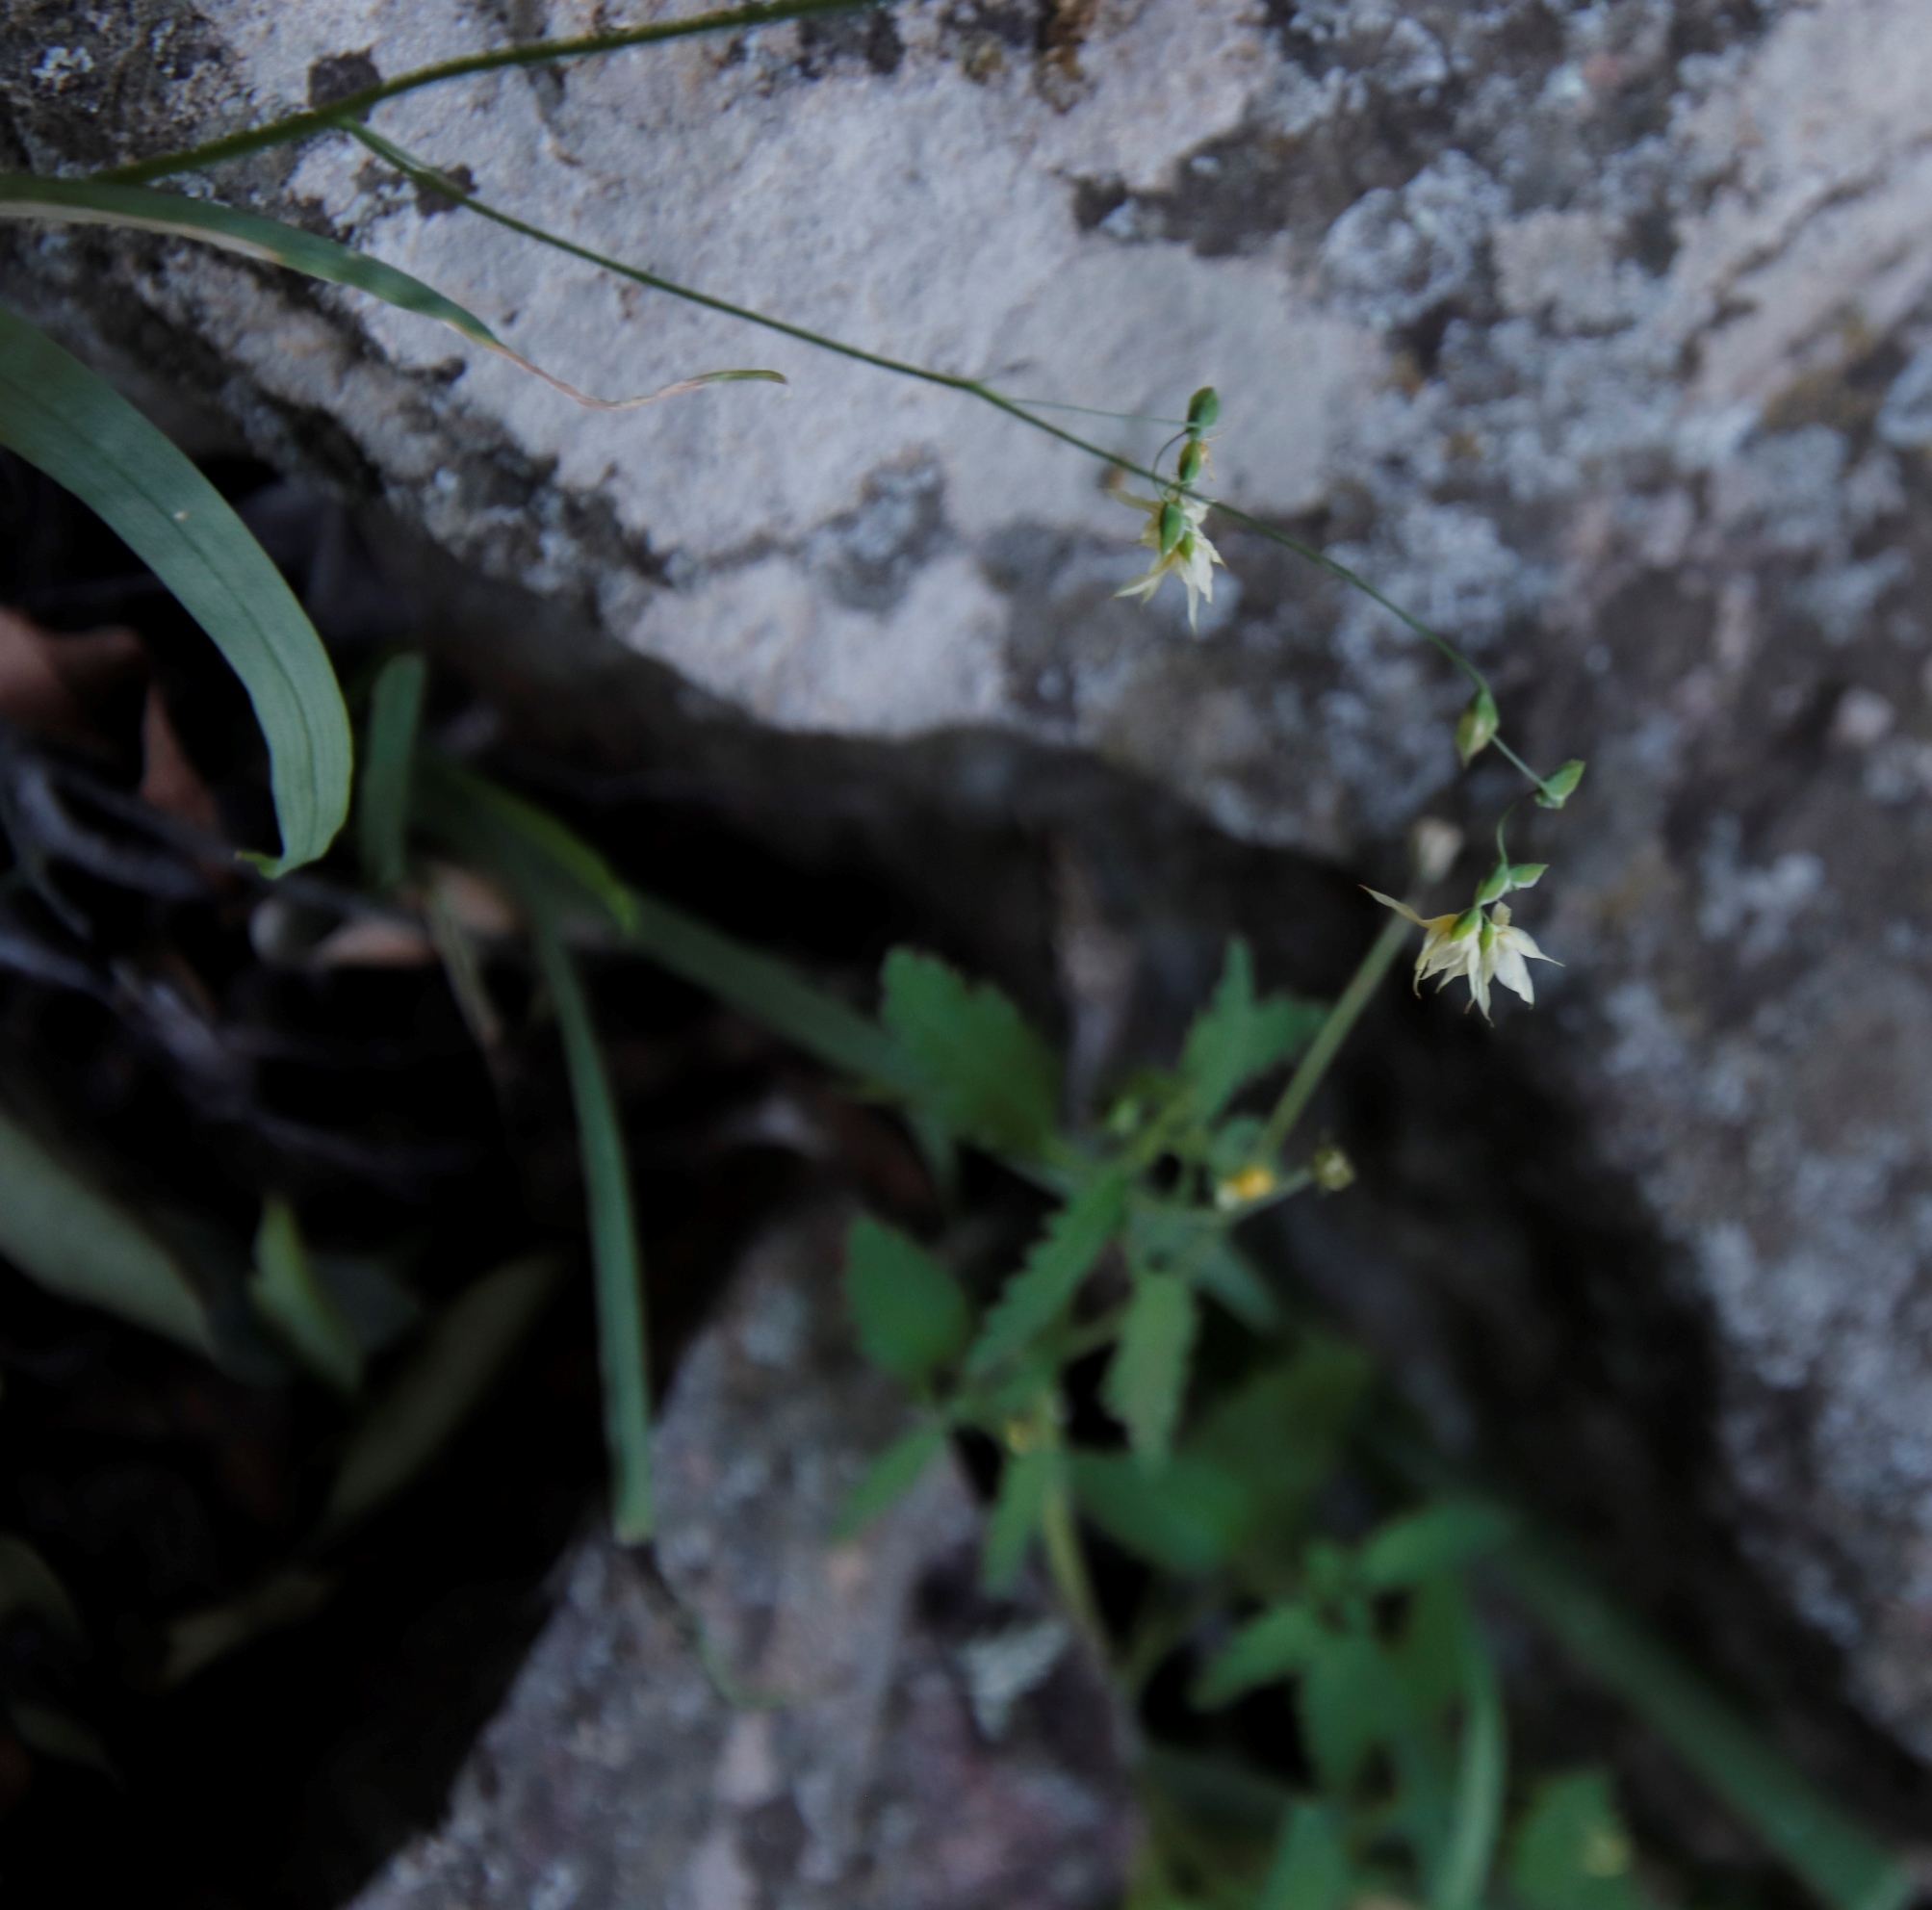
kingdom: Plantae
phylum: Tracheophyta
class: Liliopsida
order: Asparagales
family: Iridaceae
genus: Melasphaerula
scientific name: Melasphaerula graminea
